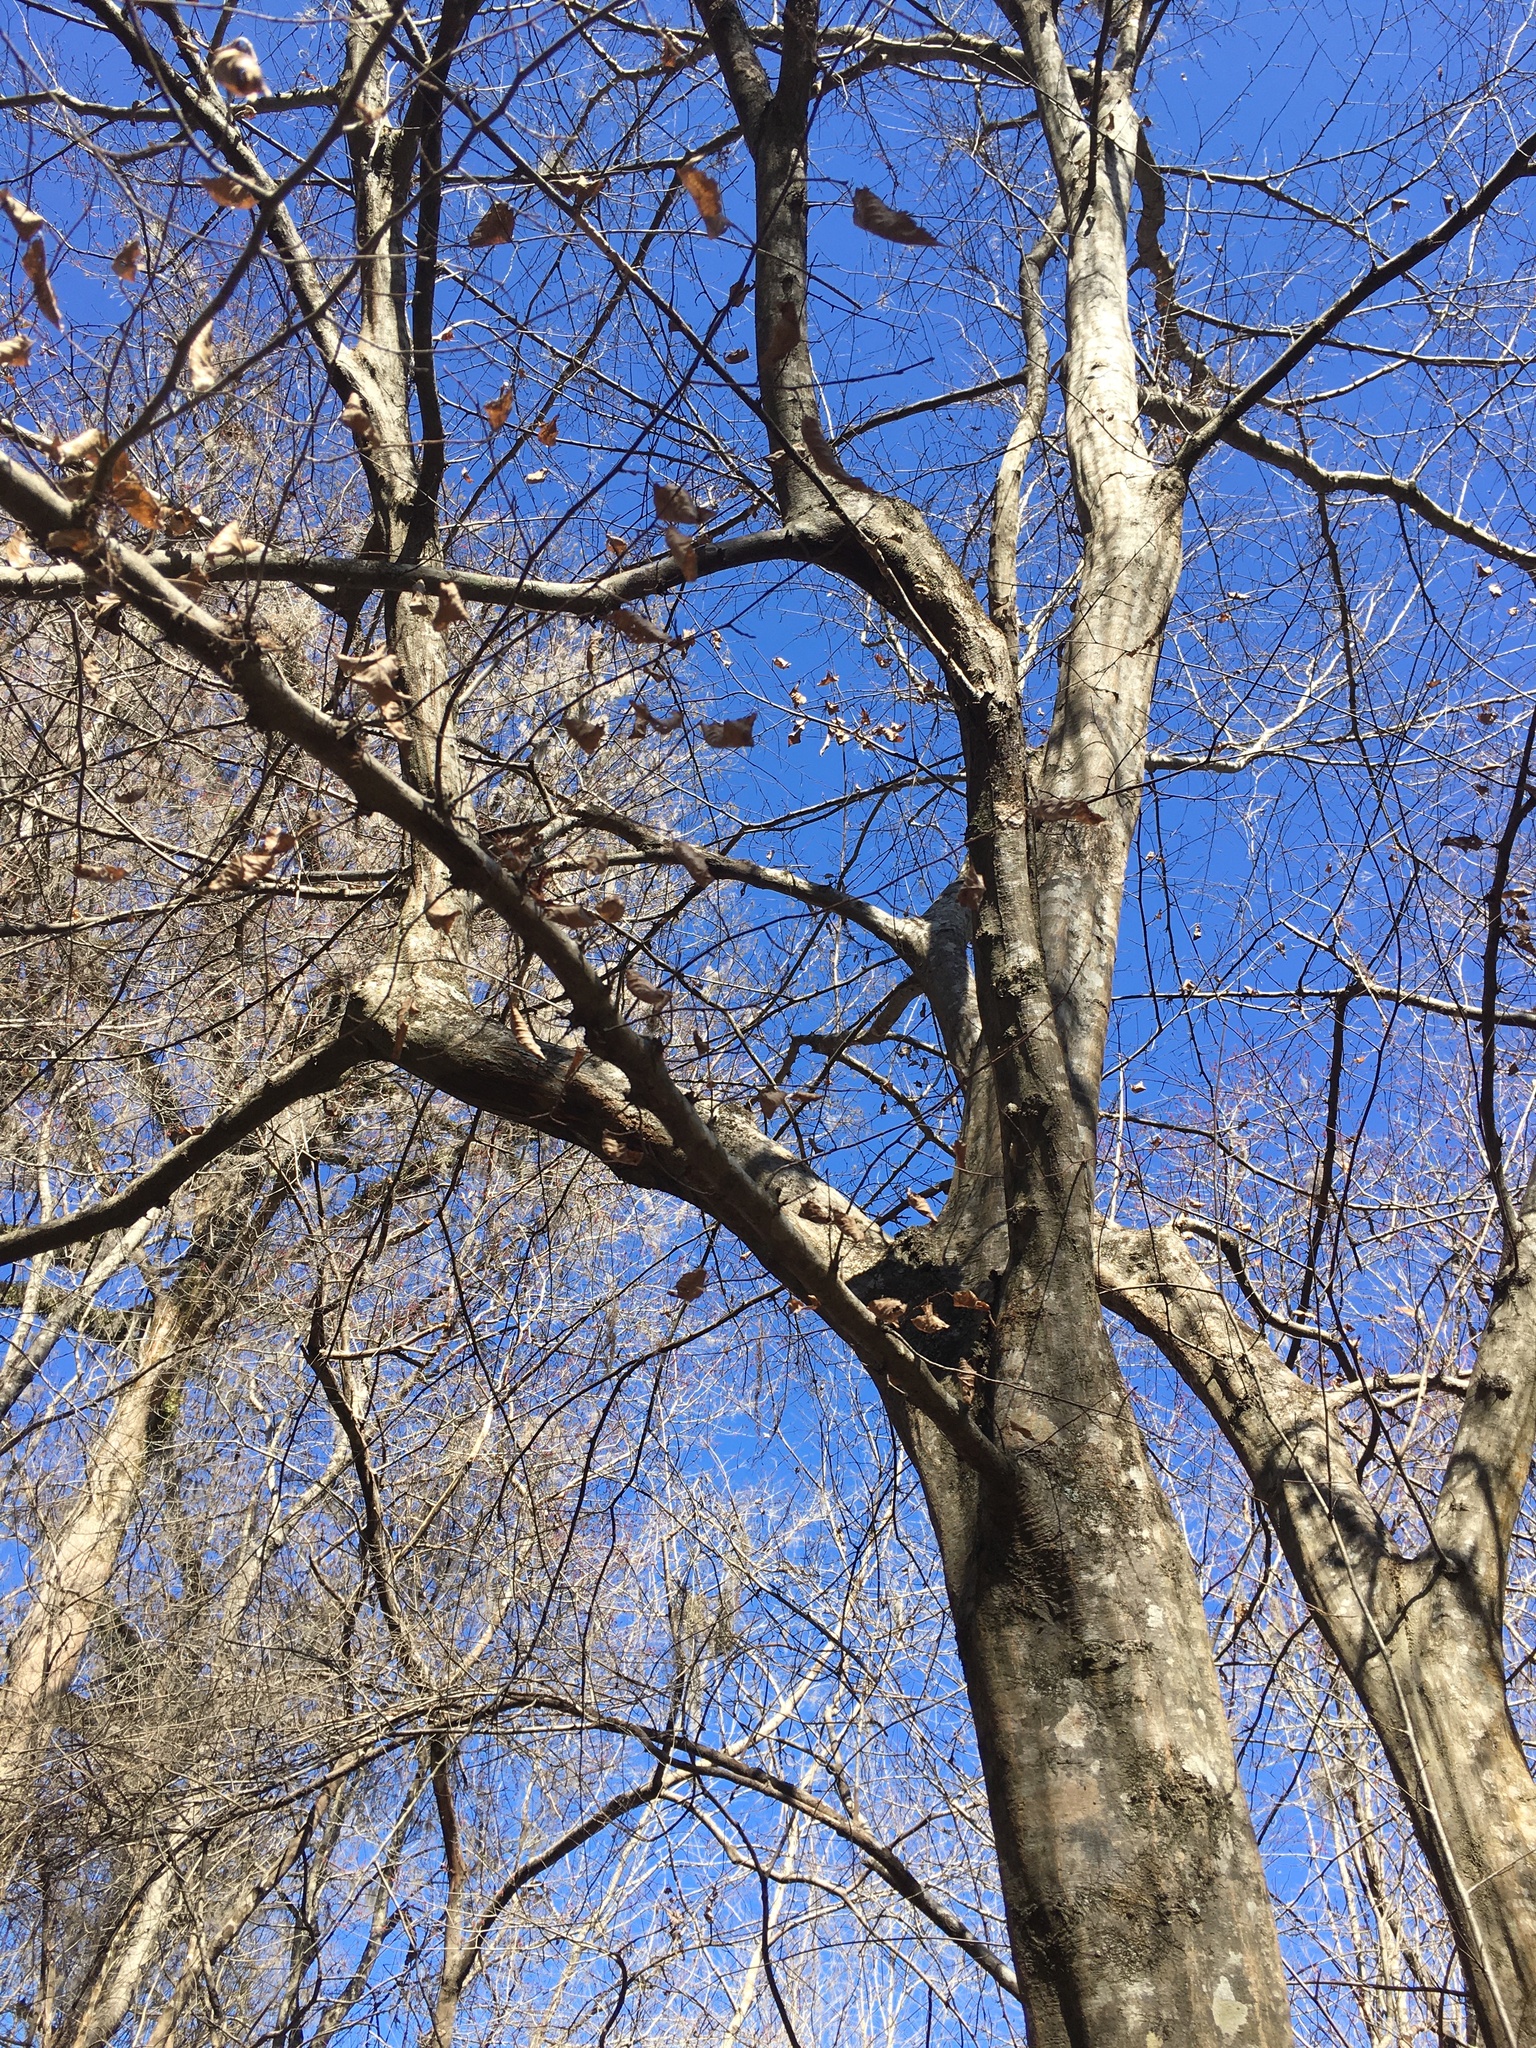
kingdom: Plantae
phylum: Tracheophyta
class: Magnoliopsida
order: Fagales
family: Betulaceae
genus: Carpinus
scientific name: Carpinus caroliniana
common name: American hornbeam
